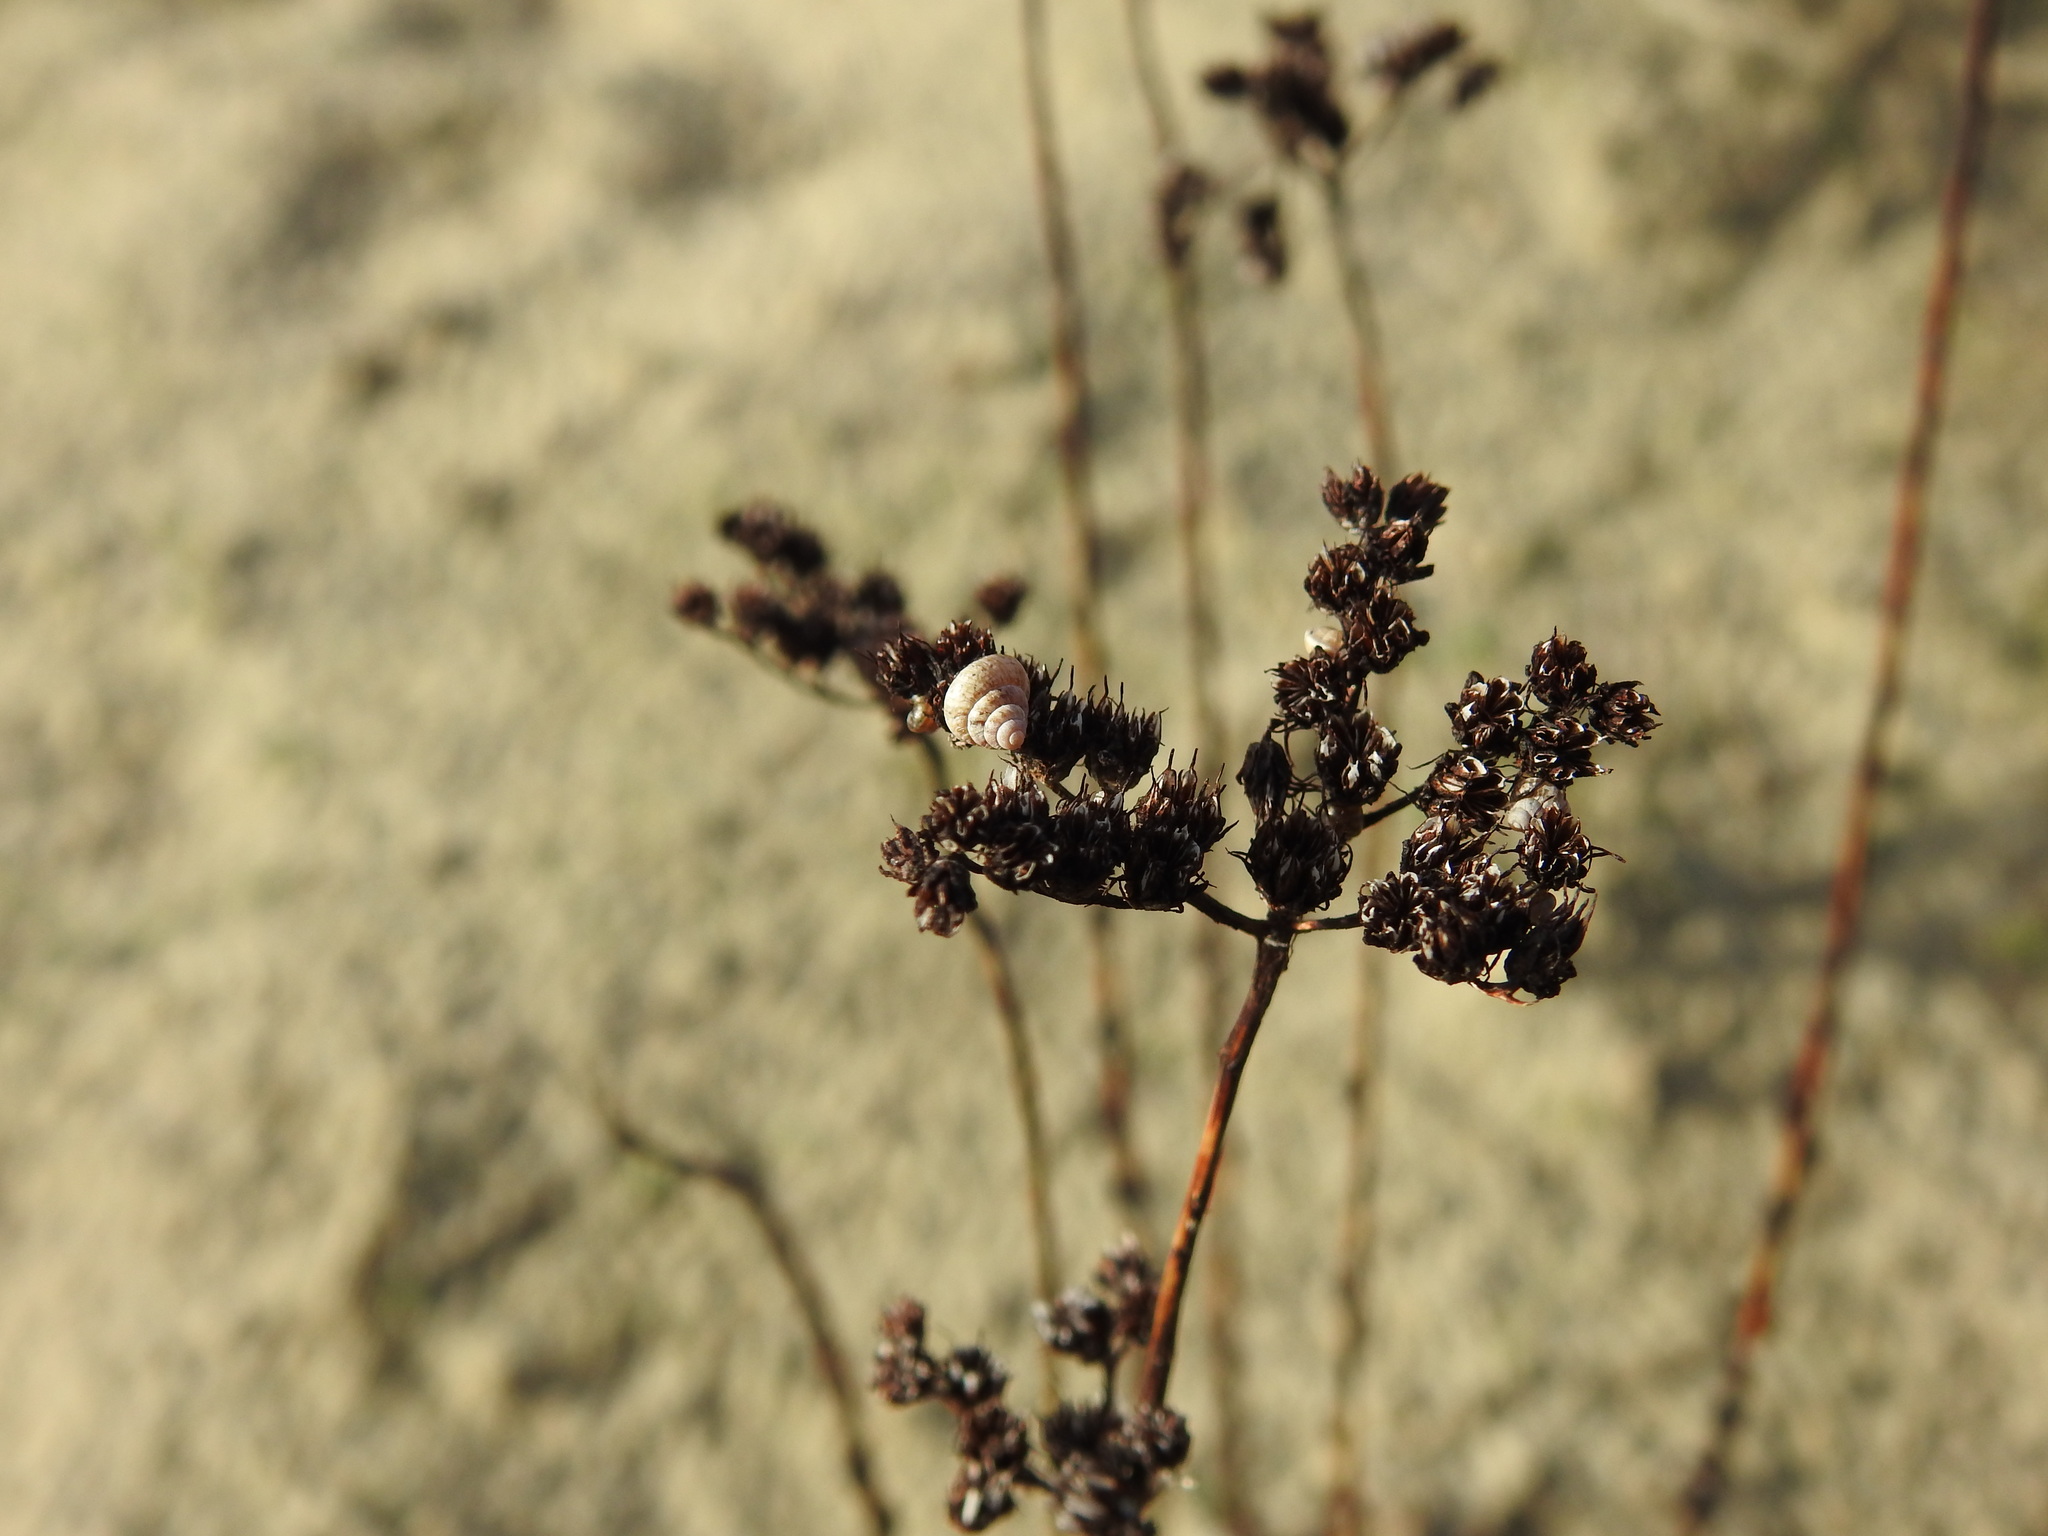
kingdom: Plantae
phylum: Tracheophyta
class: Magnoliopsida
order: Saxifragales
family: Crassulaceae
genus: Petrosedum
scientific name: Petrosedum sediforme
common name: Pale stonecrop
